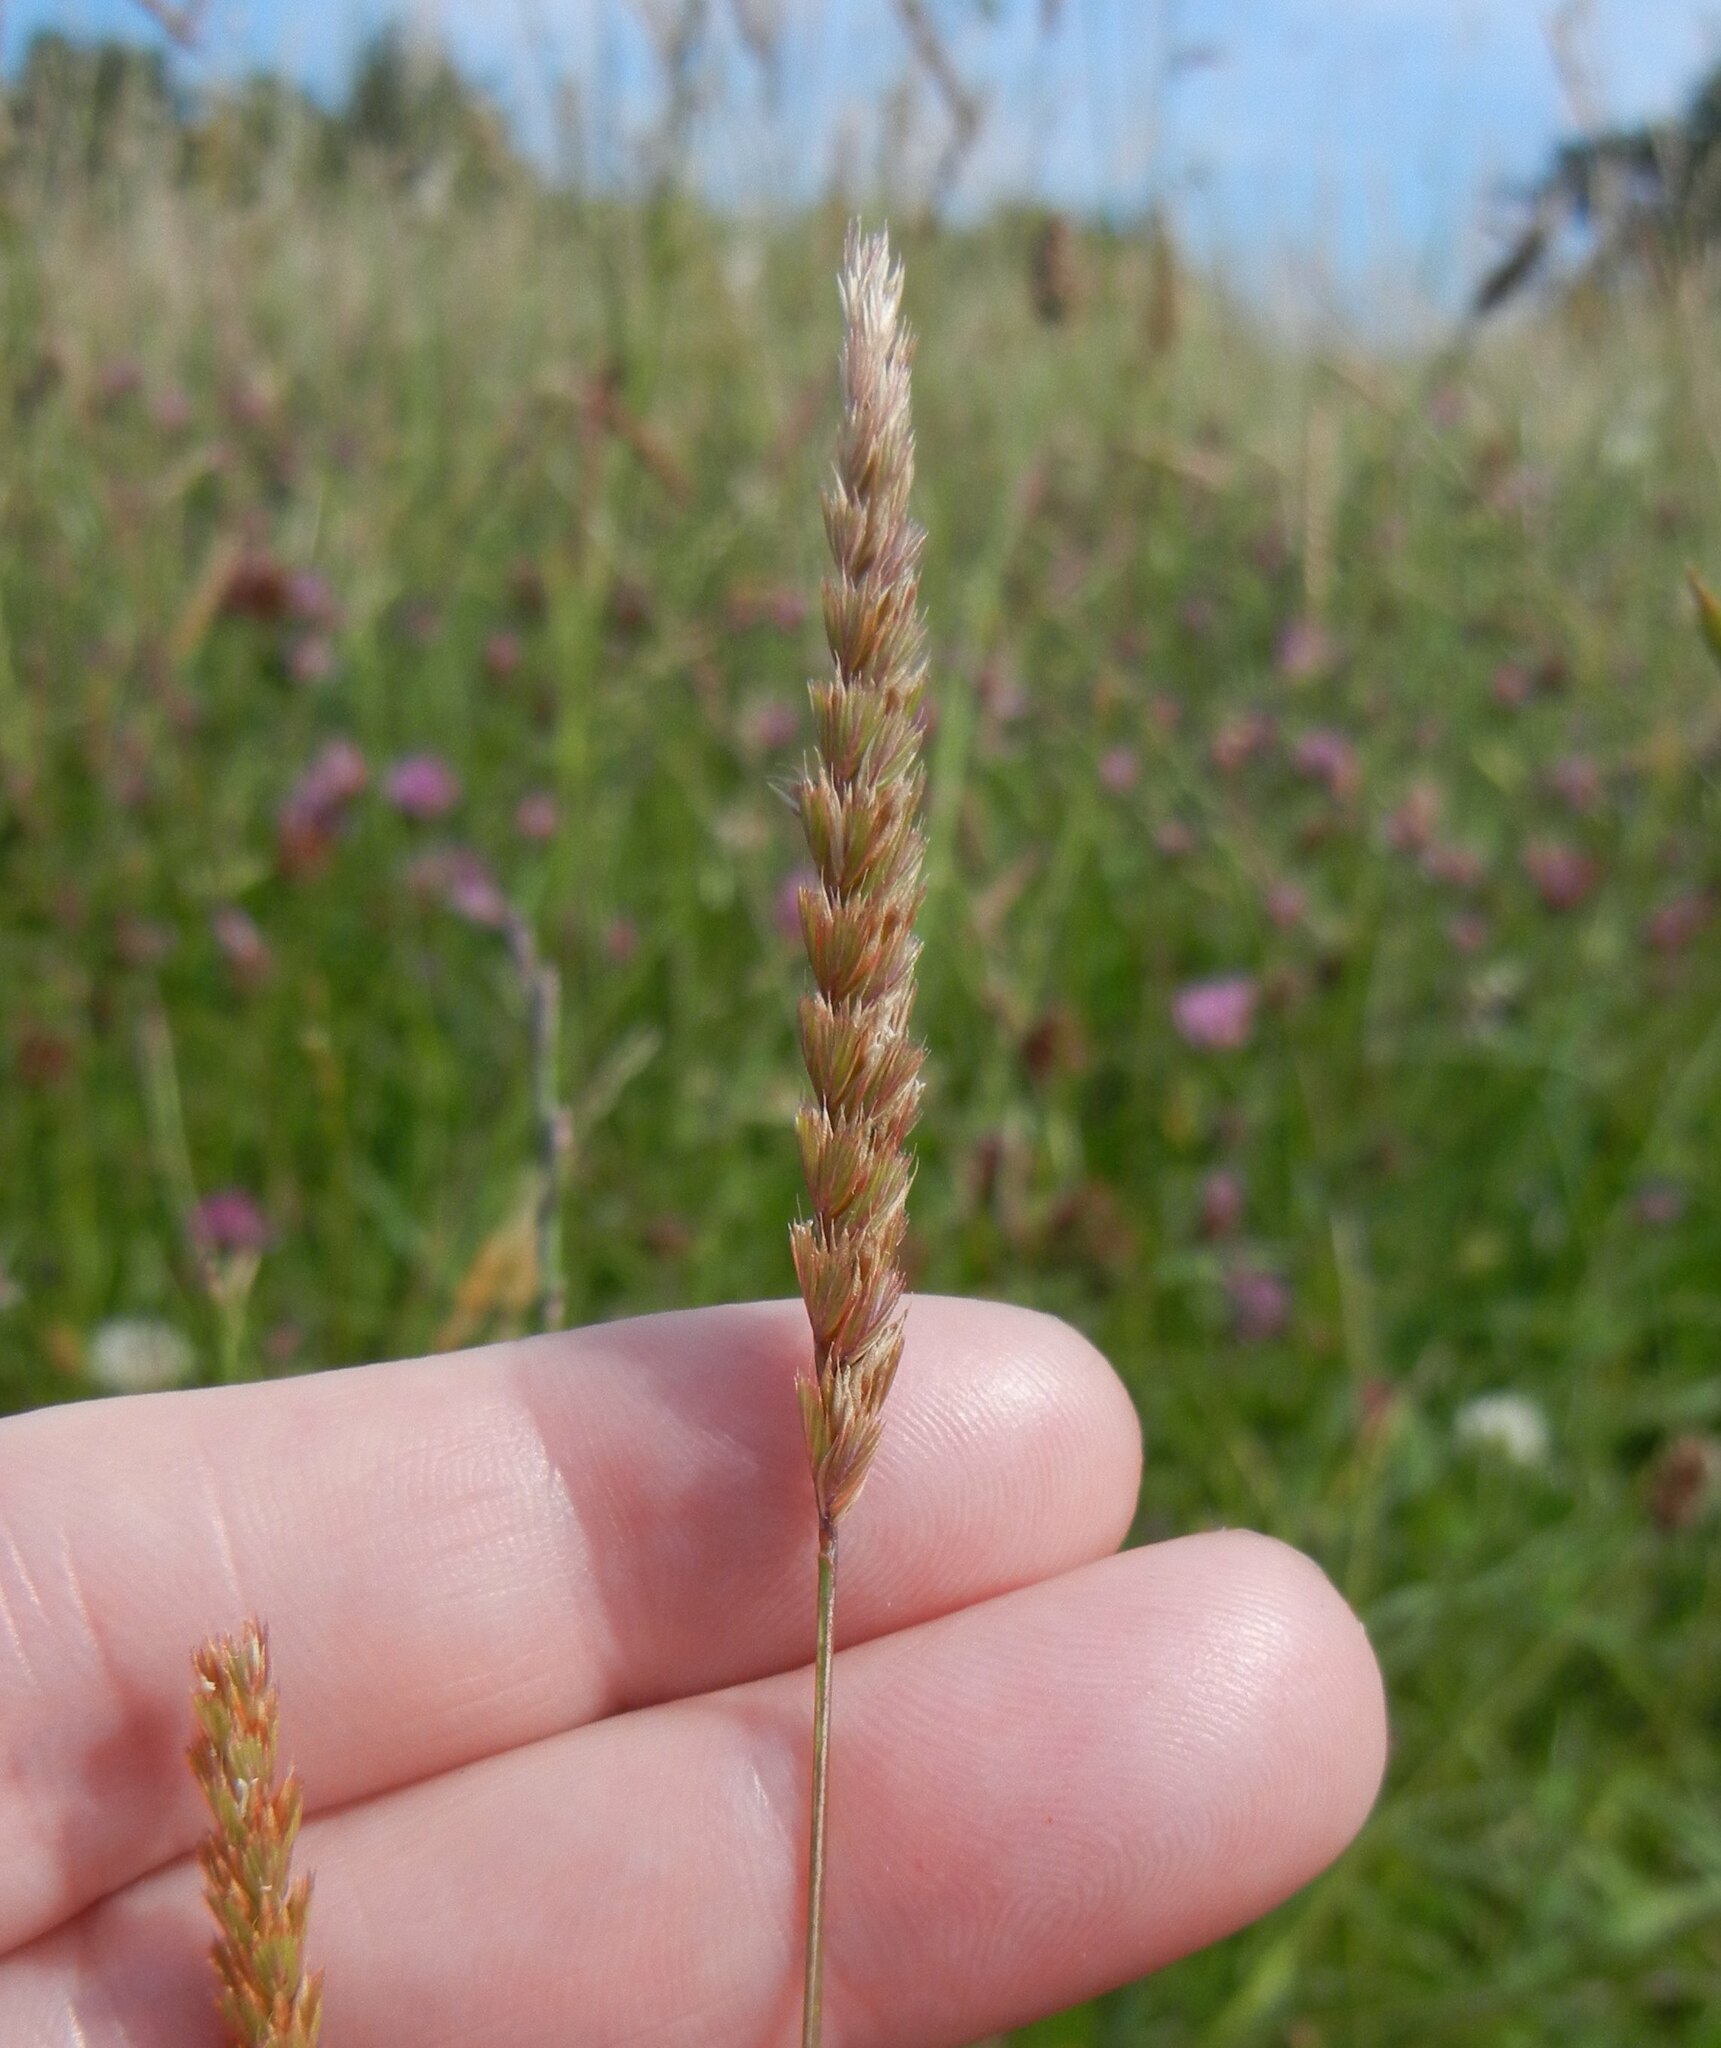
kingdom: Plantae
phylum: Tracheophyta
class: Liliopsida
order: Poales
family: Poaceae
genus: Cynosurus
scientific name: Cynosurus cristatus
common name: Crested dog's-tail
